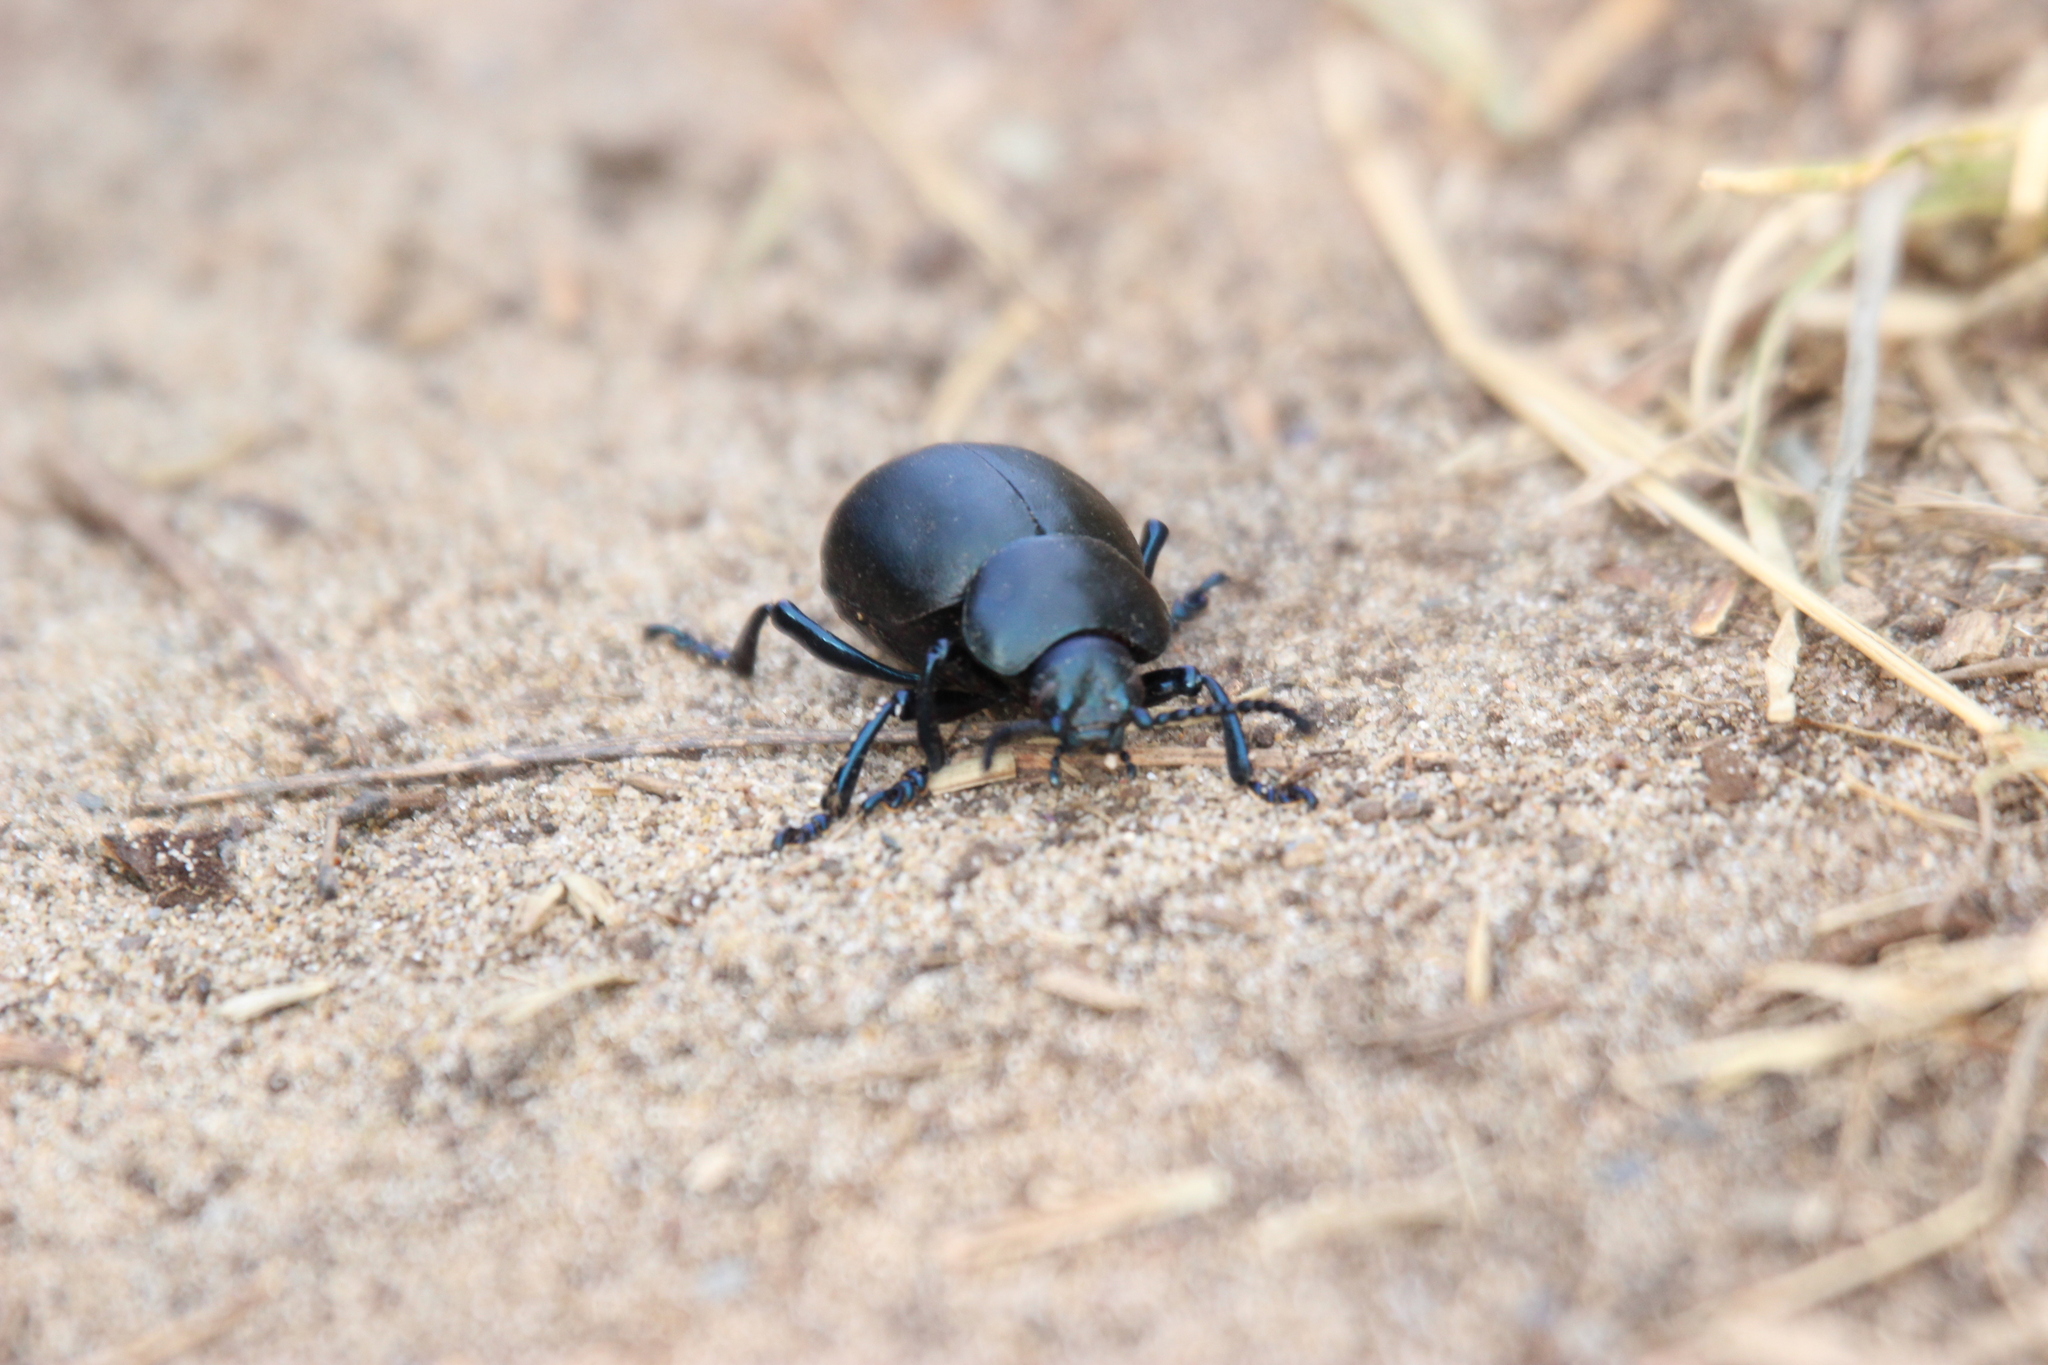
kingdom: Animalia
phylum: Arthropoda
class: Insecta
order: Coleoptera
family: Chrysomelidae
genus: Timarcha
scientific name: Timarcha tenebricosa
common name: Bloody-nosed beetle
